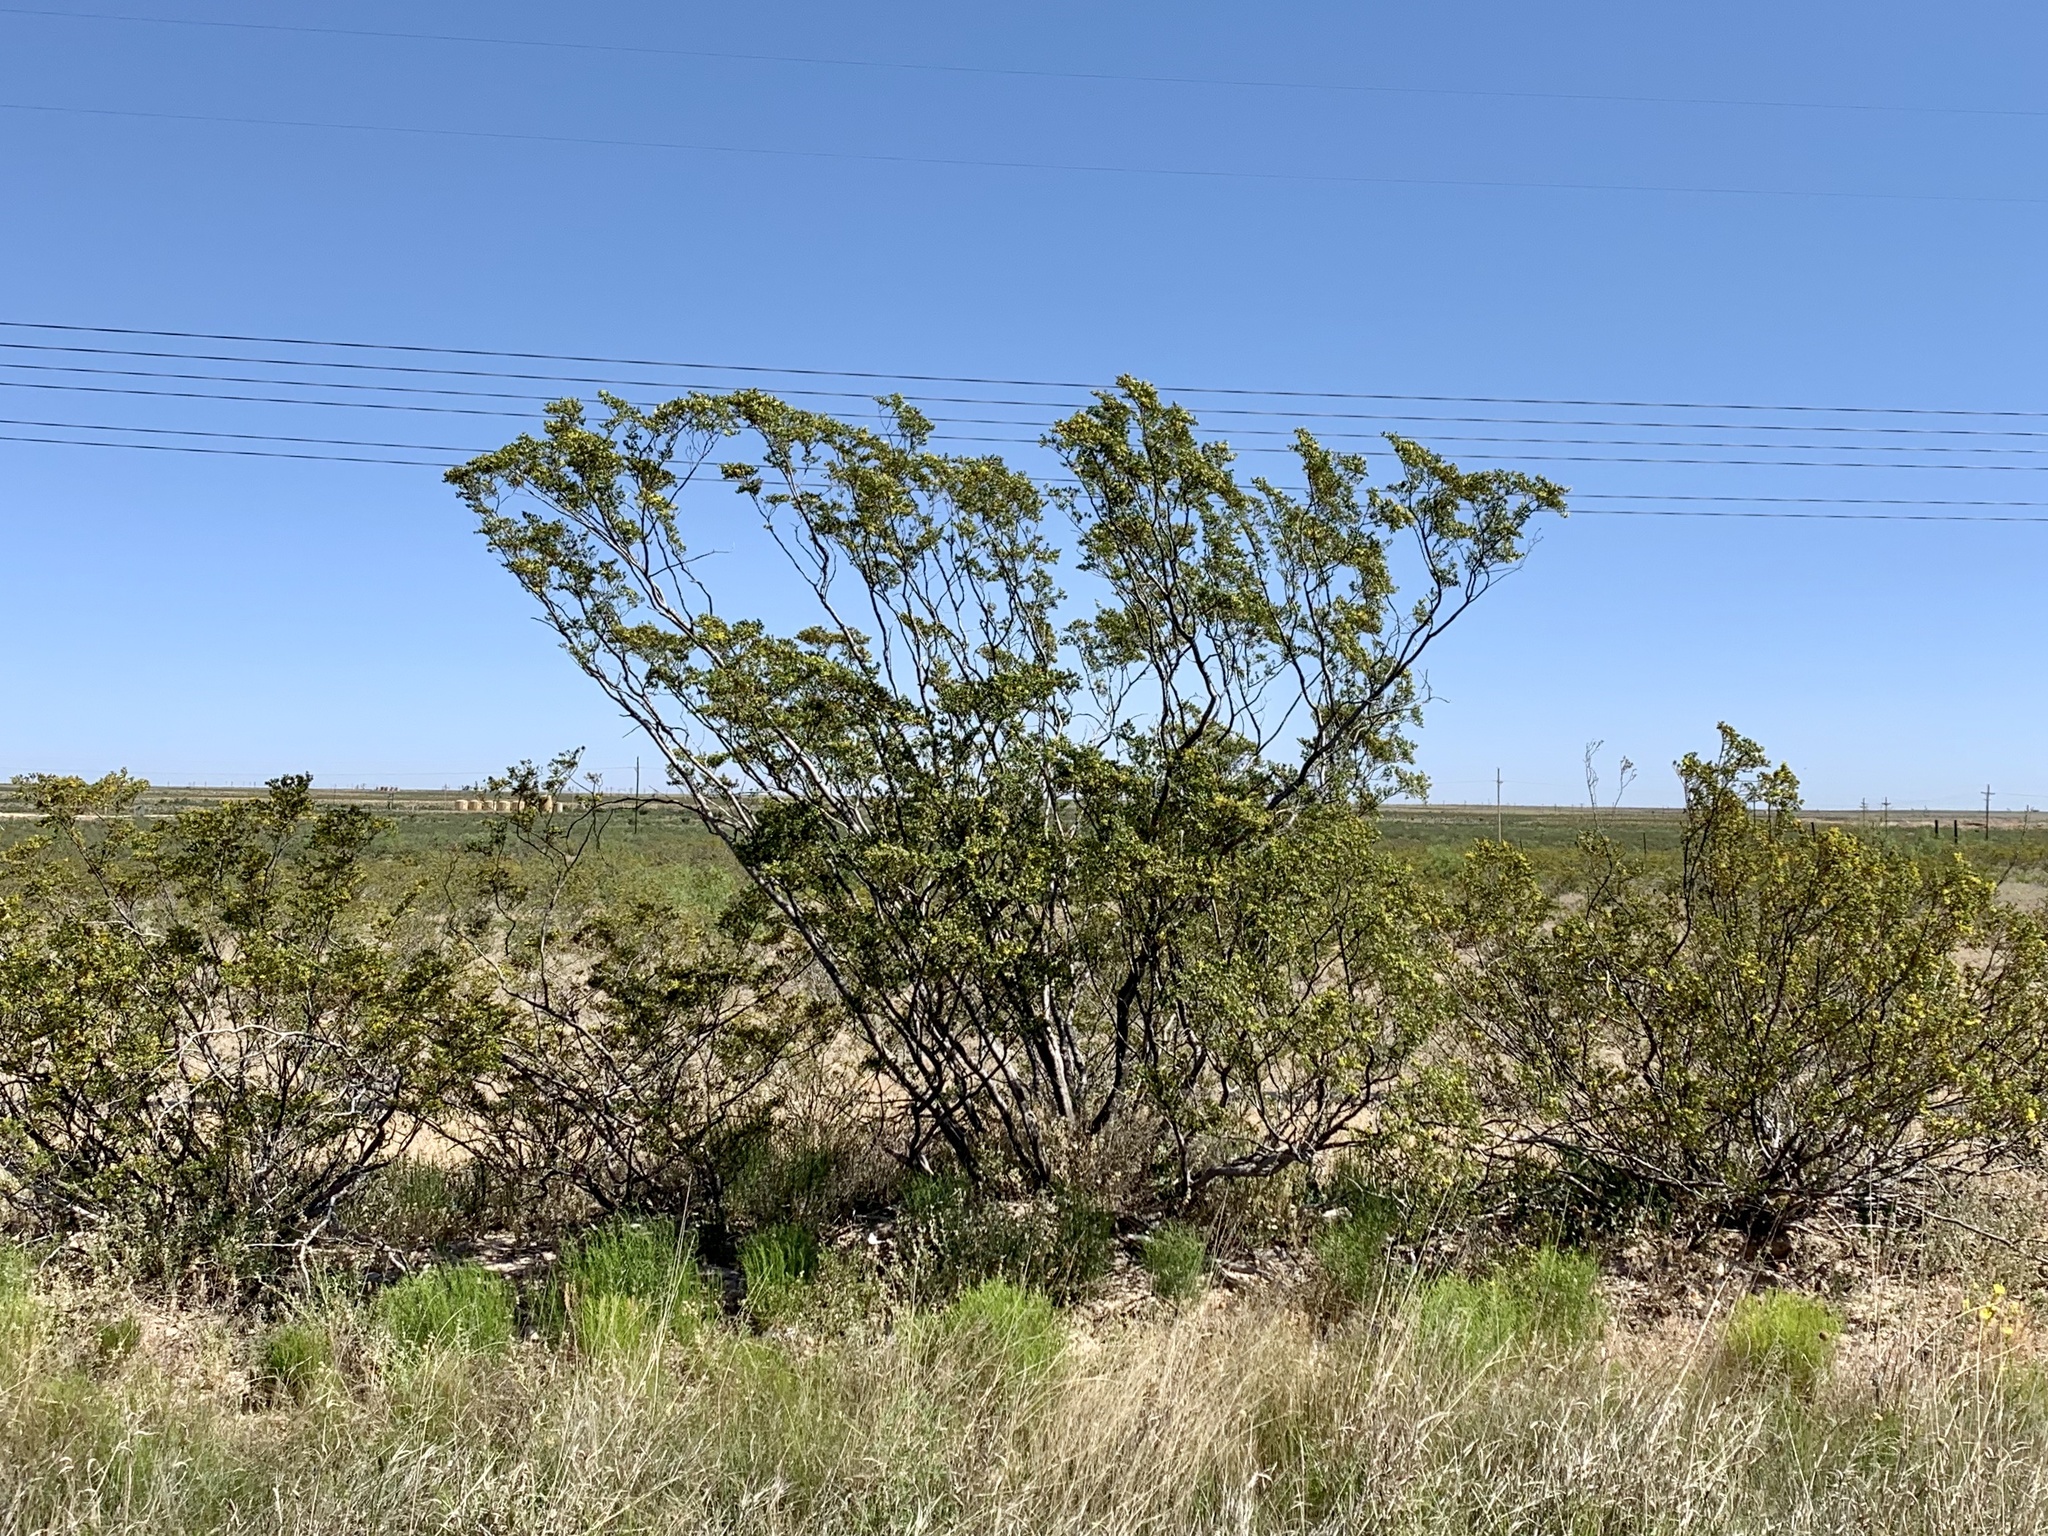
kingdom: Plantae
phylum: Tracheophyta
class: Magnoliopsida
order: Zygophyllales
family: Zygophyllaceae
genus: Larrea
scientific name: Larrea tridentata
